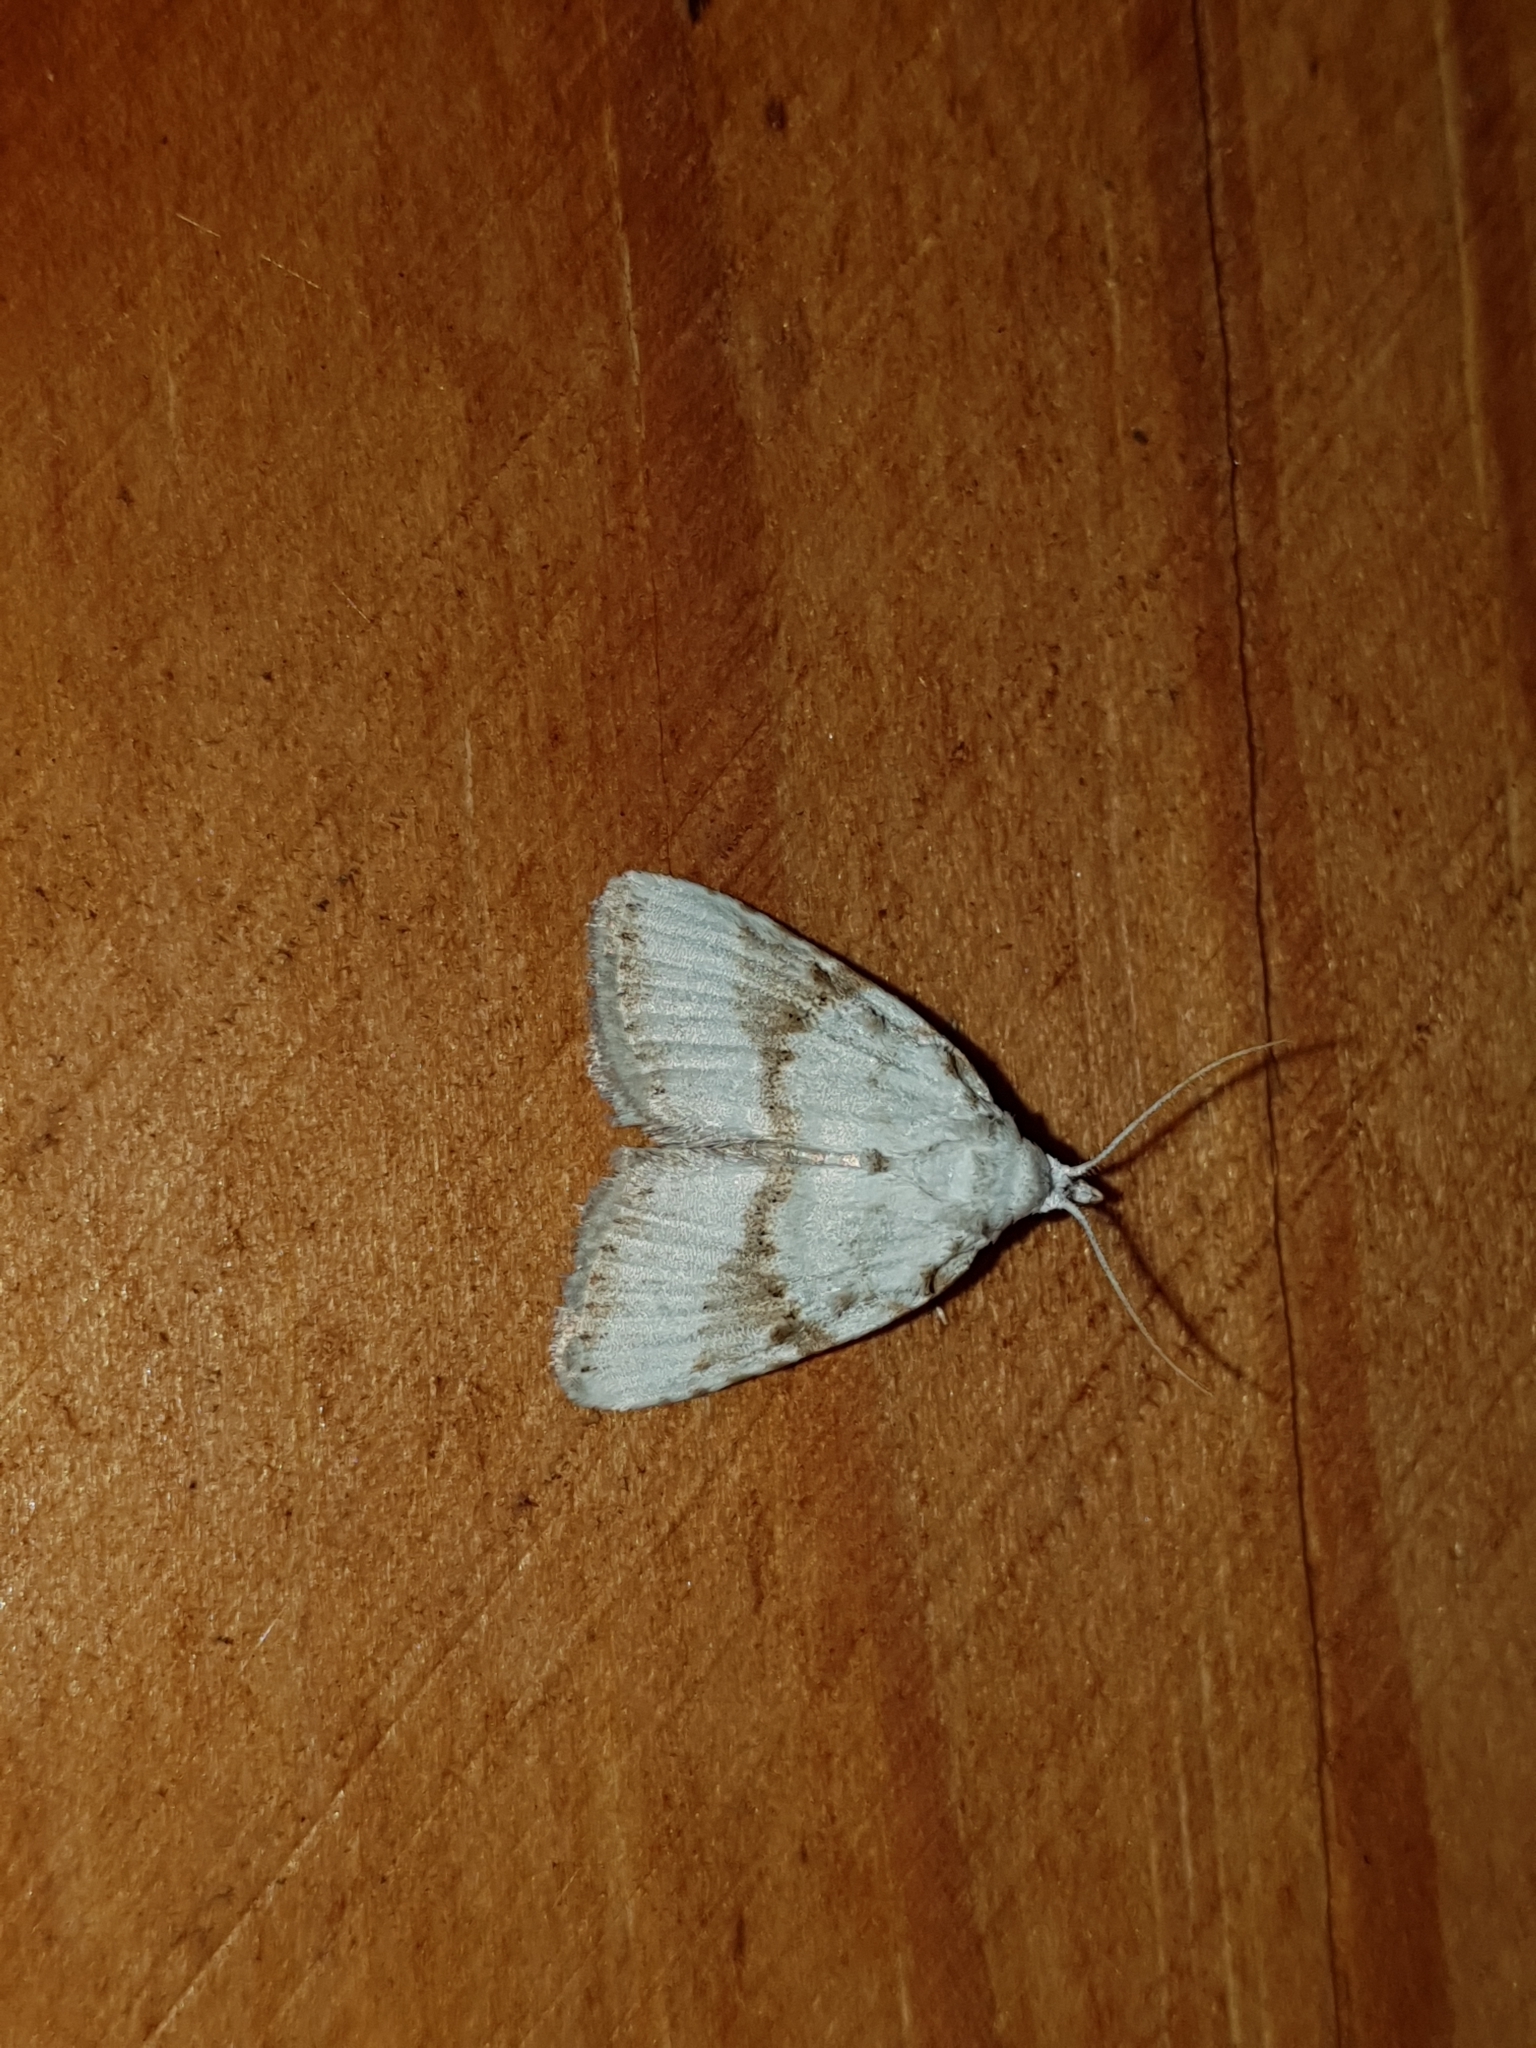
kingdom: Animalia
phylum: Arthropoda
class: Insecta
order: Lepidoptera
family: Nolidae
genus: Meganola
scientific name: Meganola albula
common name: Kent black arches
